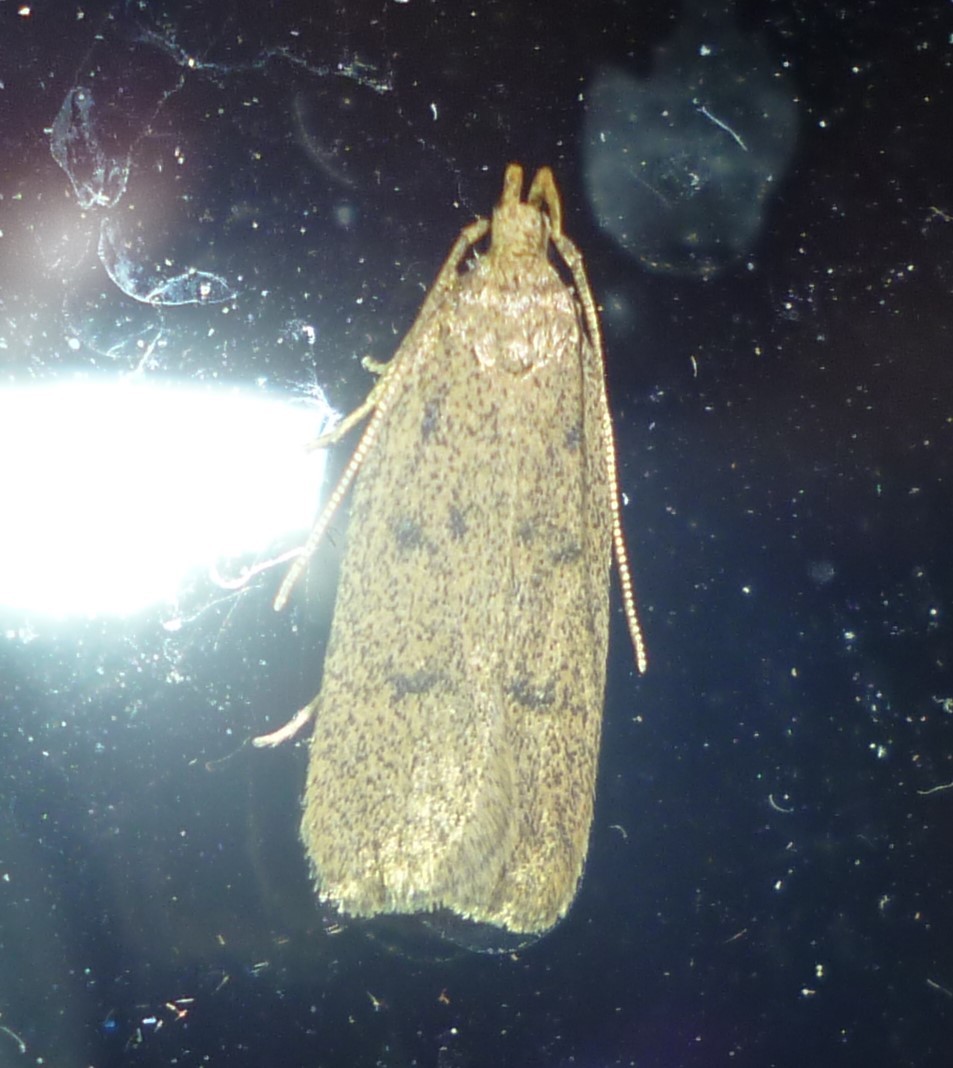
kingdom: Animalia
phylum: Arthropoda
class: Insecta
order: Lepidoptera
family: Autostichidae
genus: Glyphidocera
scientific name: Glyphidocera septentrionella
